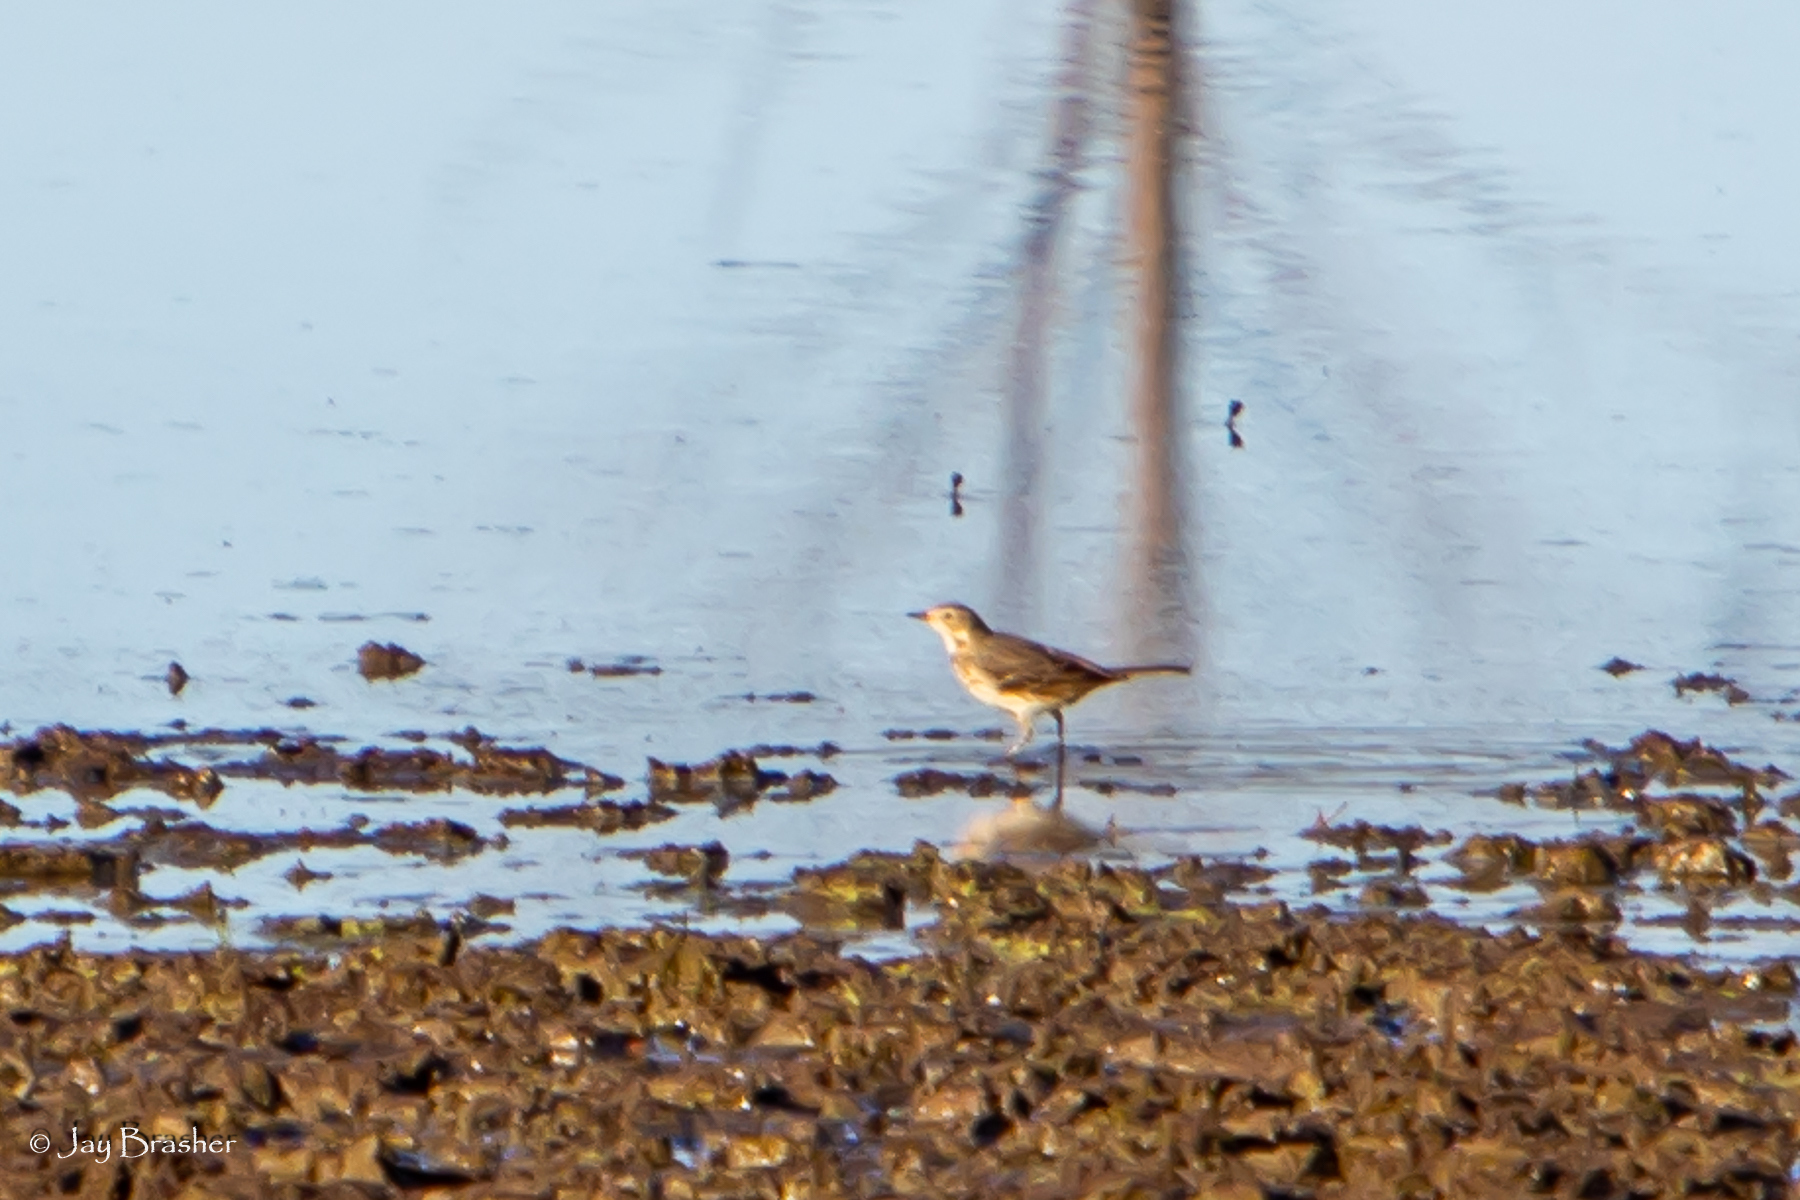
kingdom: Animalia
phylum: Chordata
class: Aves
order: Passeriformes
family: Motacillidae
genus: Anthus
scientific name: Anthus rubescens
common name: Buff-bellied pipit
